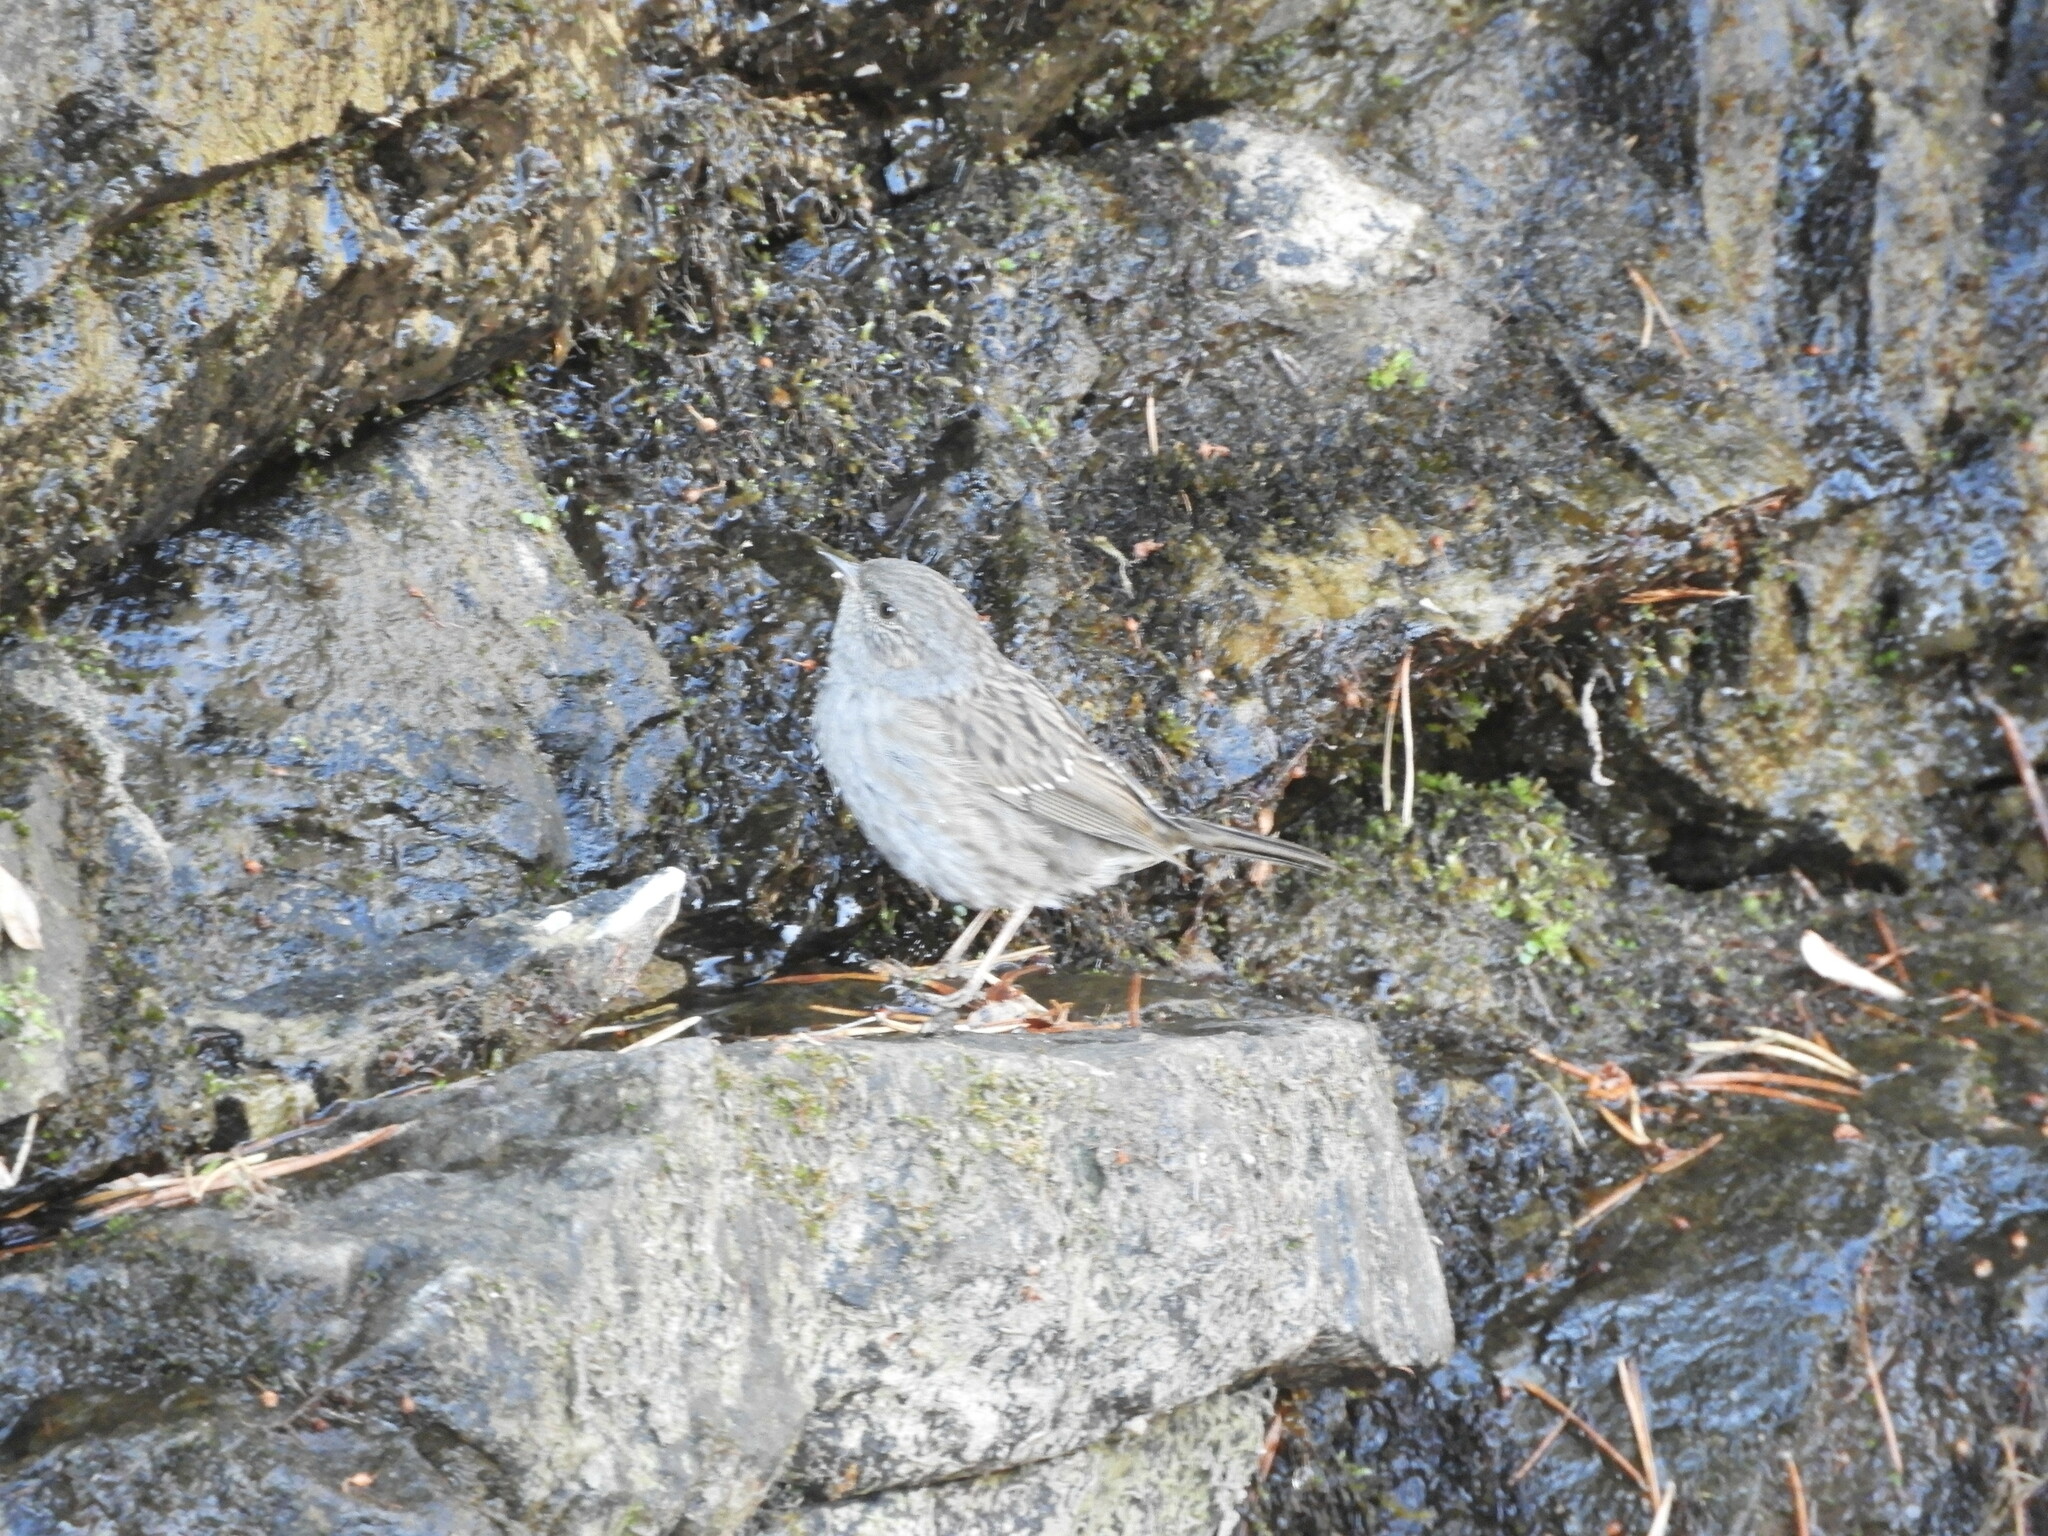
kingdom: Animalia
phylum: Chordata
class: Aves
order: Passeriformes
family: Prunellidae
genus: Prunella
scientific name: Prunella modularis
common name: Dunnock
